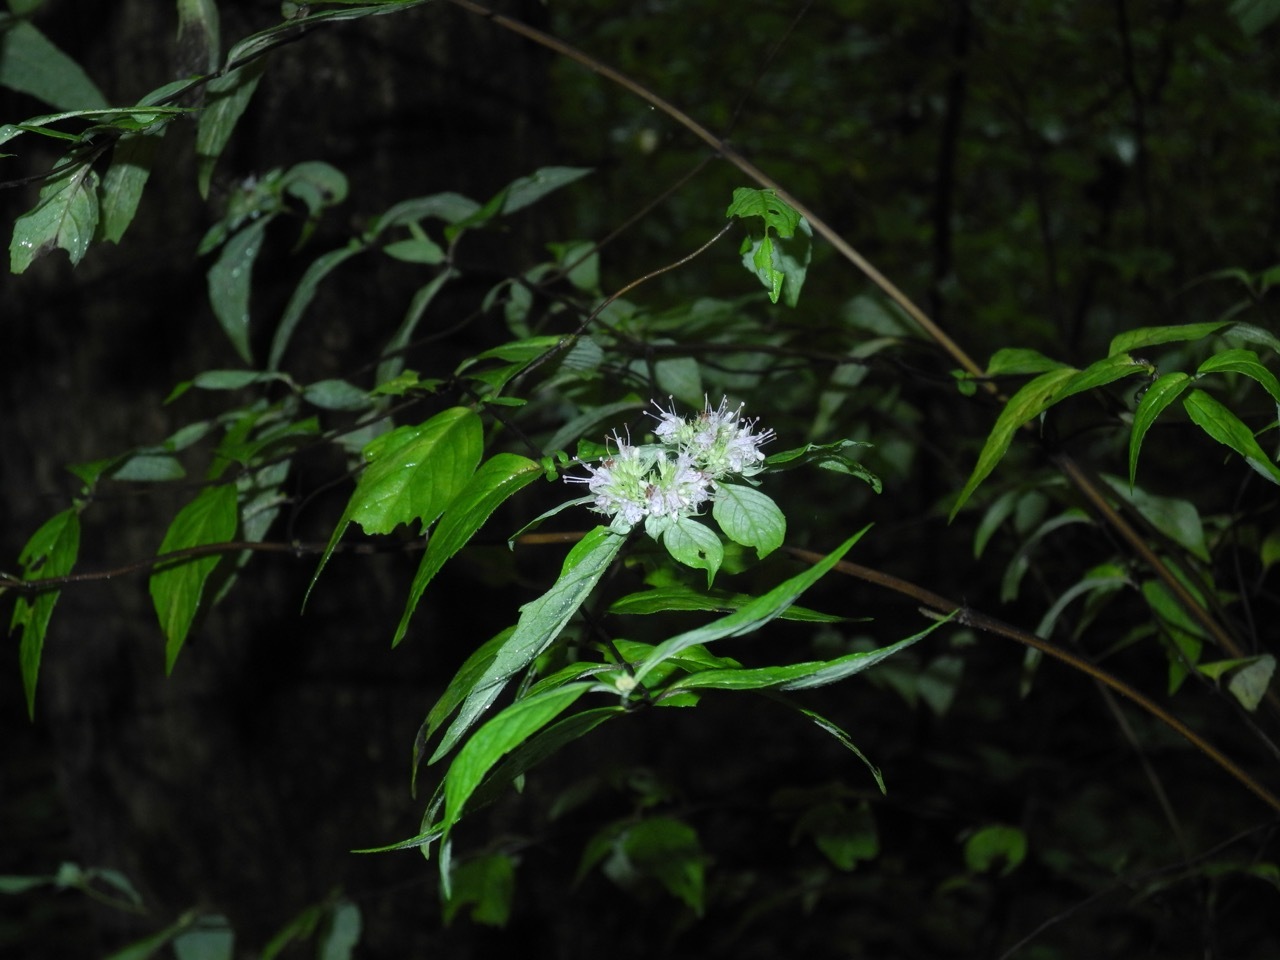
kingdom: Plantae
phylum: Tracheophyta
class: Magnoliopsida
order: Lamiales
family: Lamiaceae
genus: Pycnanthemum
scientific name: Pycnanthemum incanum
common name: Hoary mountain-mint
